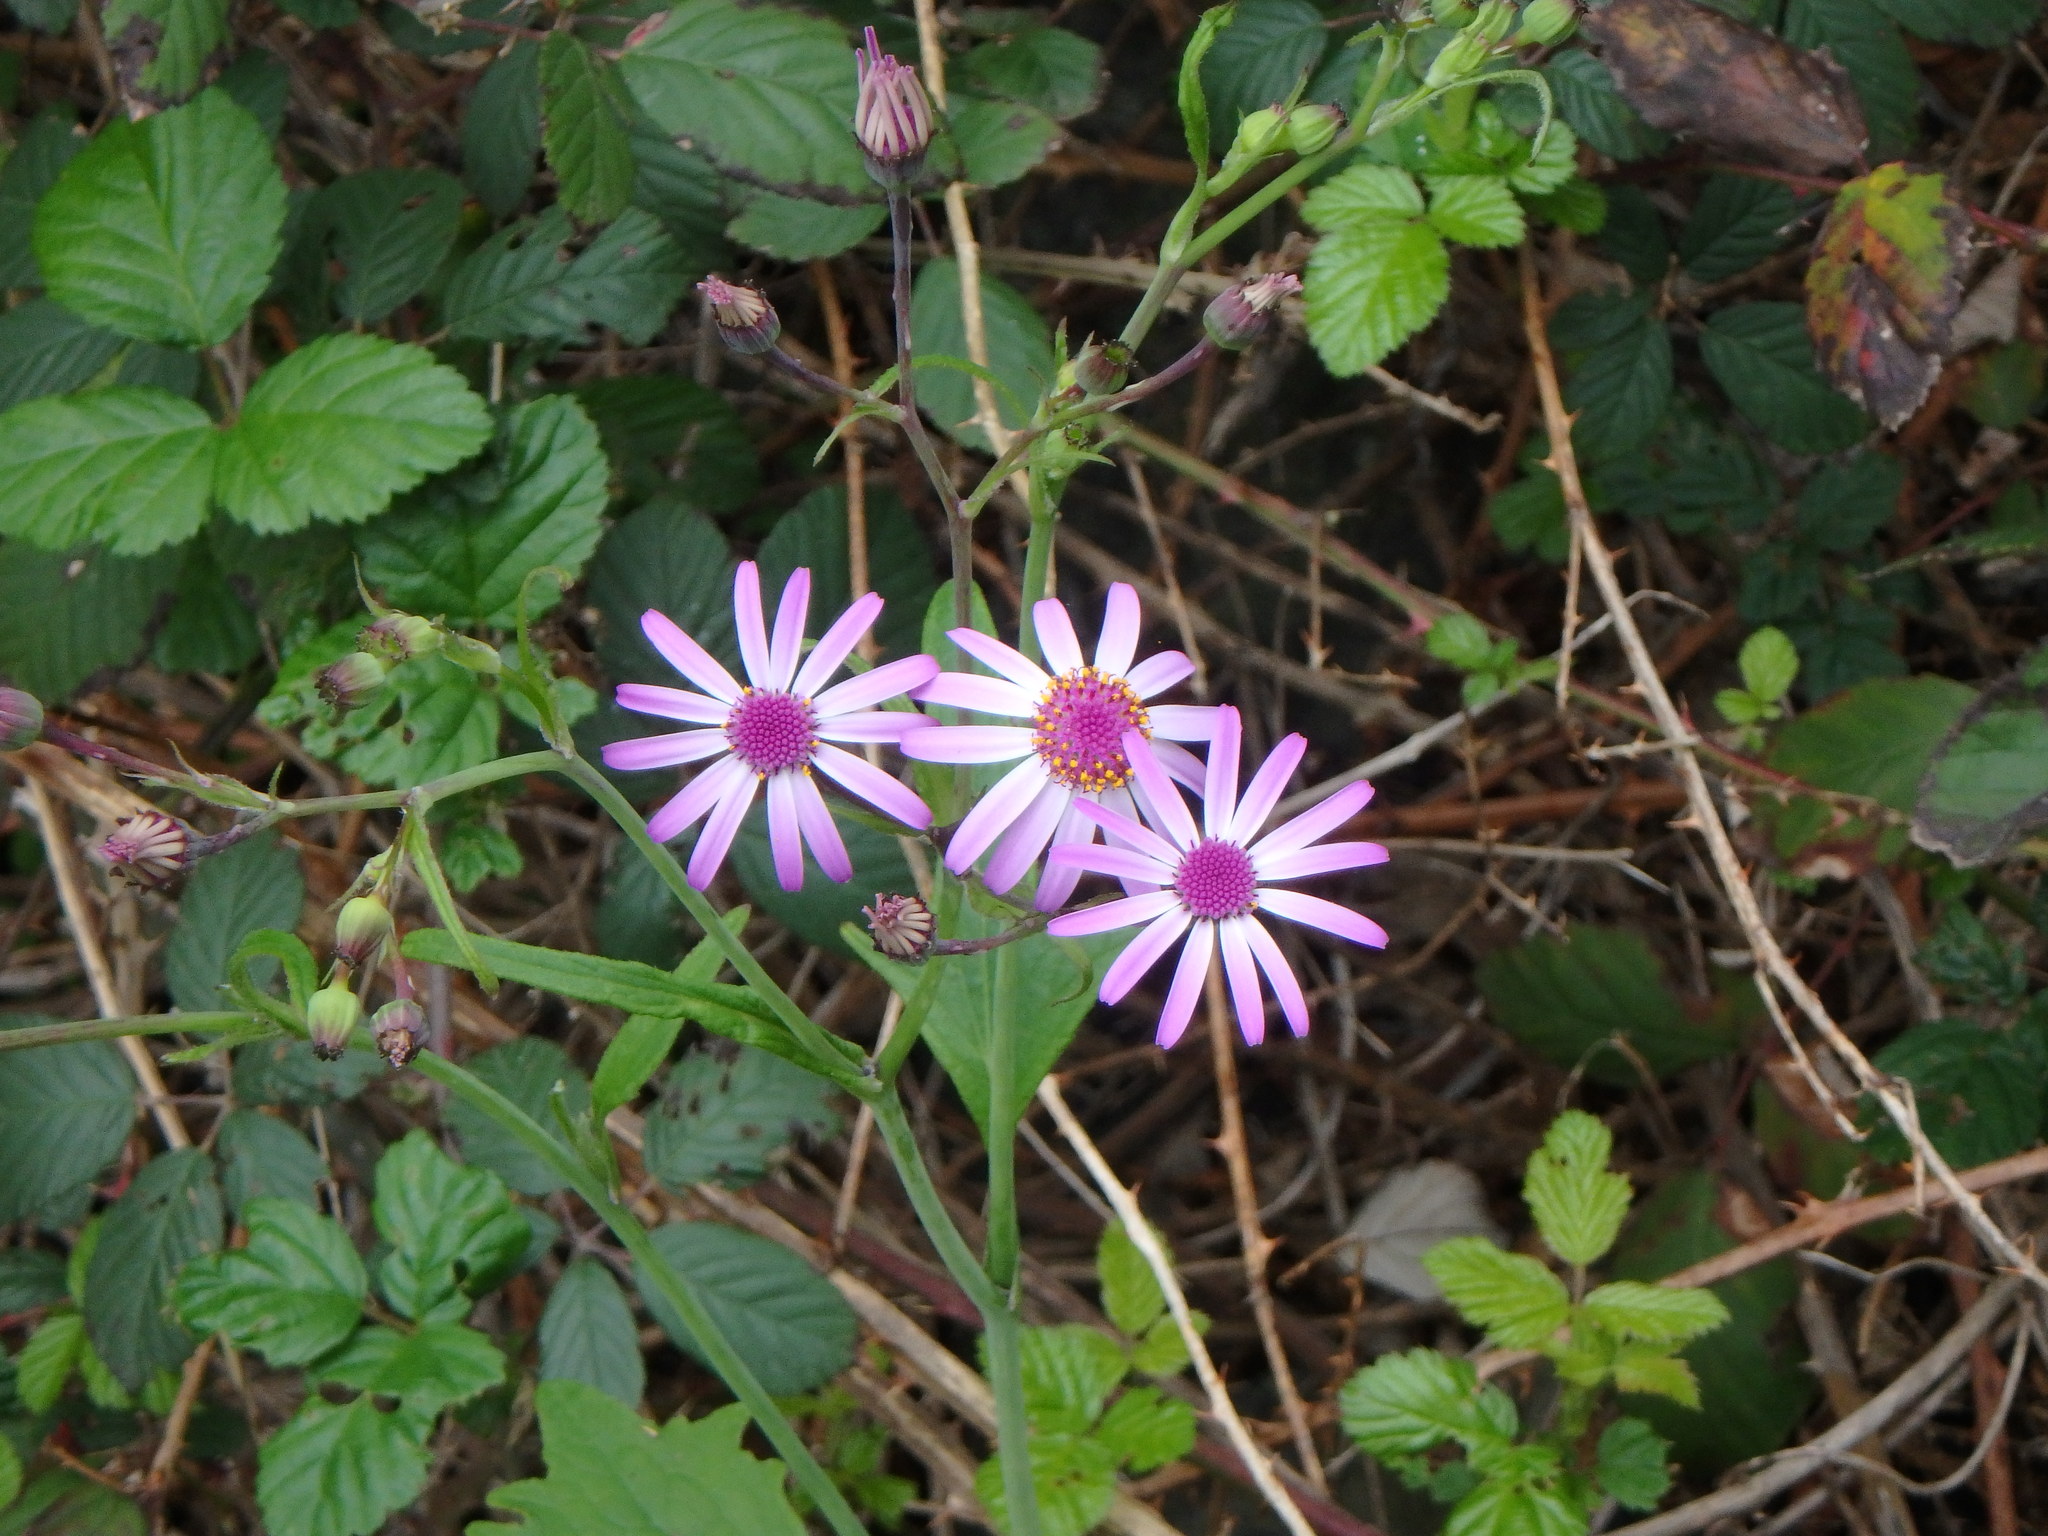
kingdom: Plantae
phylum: Tracheophyta
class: Magnoliopsida
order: Asterales
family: Asteraceae
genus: Pericallis
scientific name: Pericallis lanata
